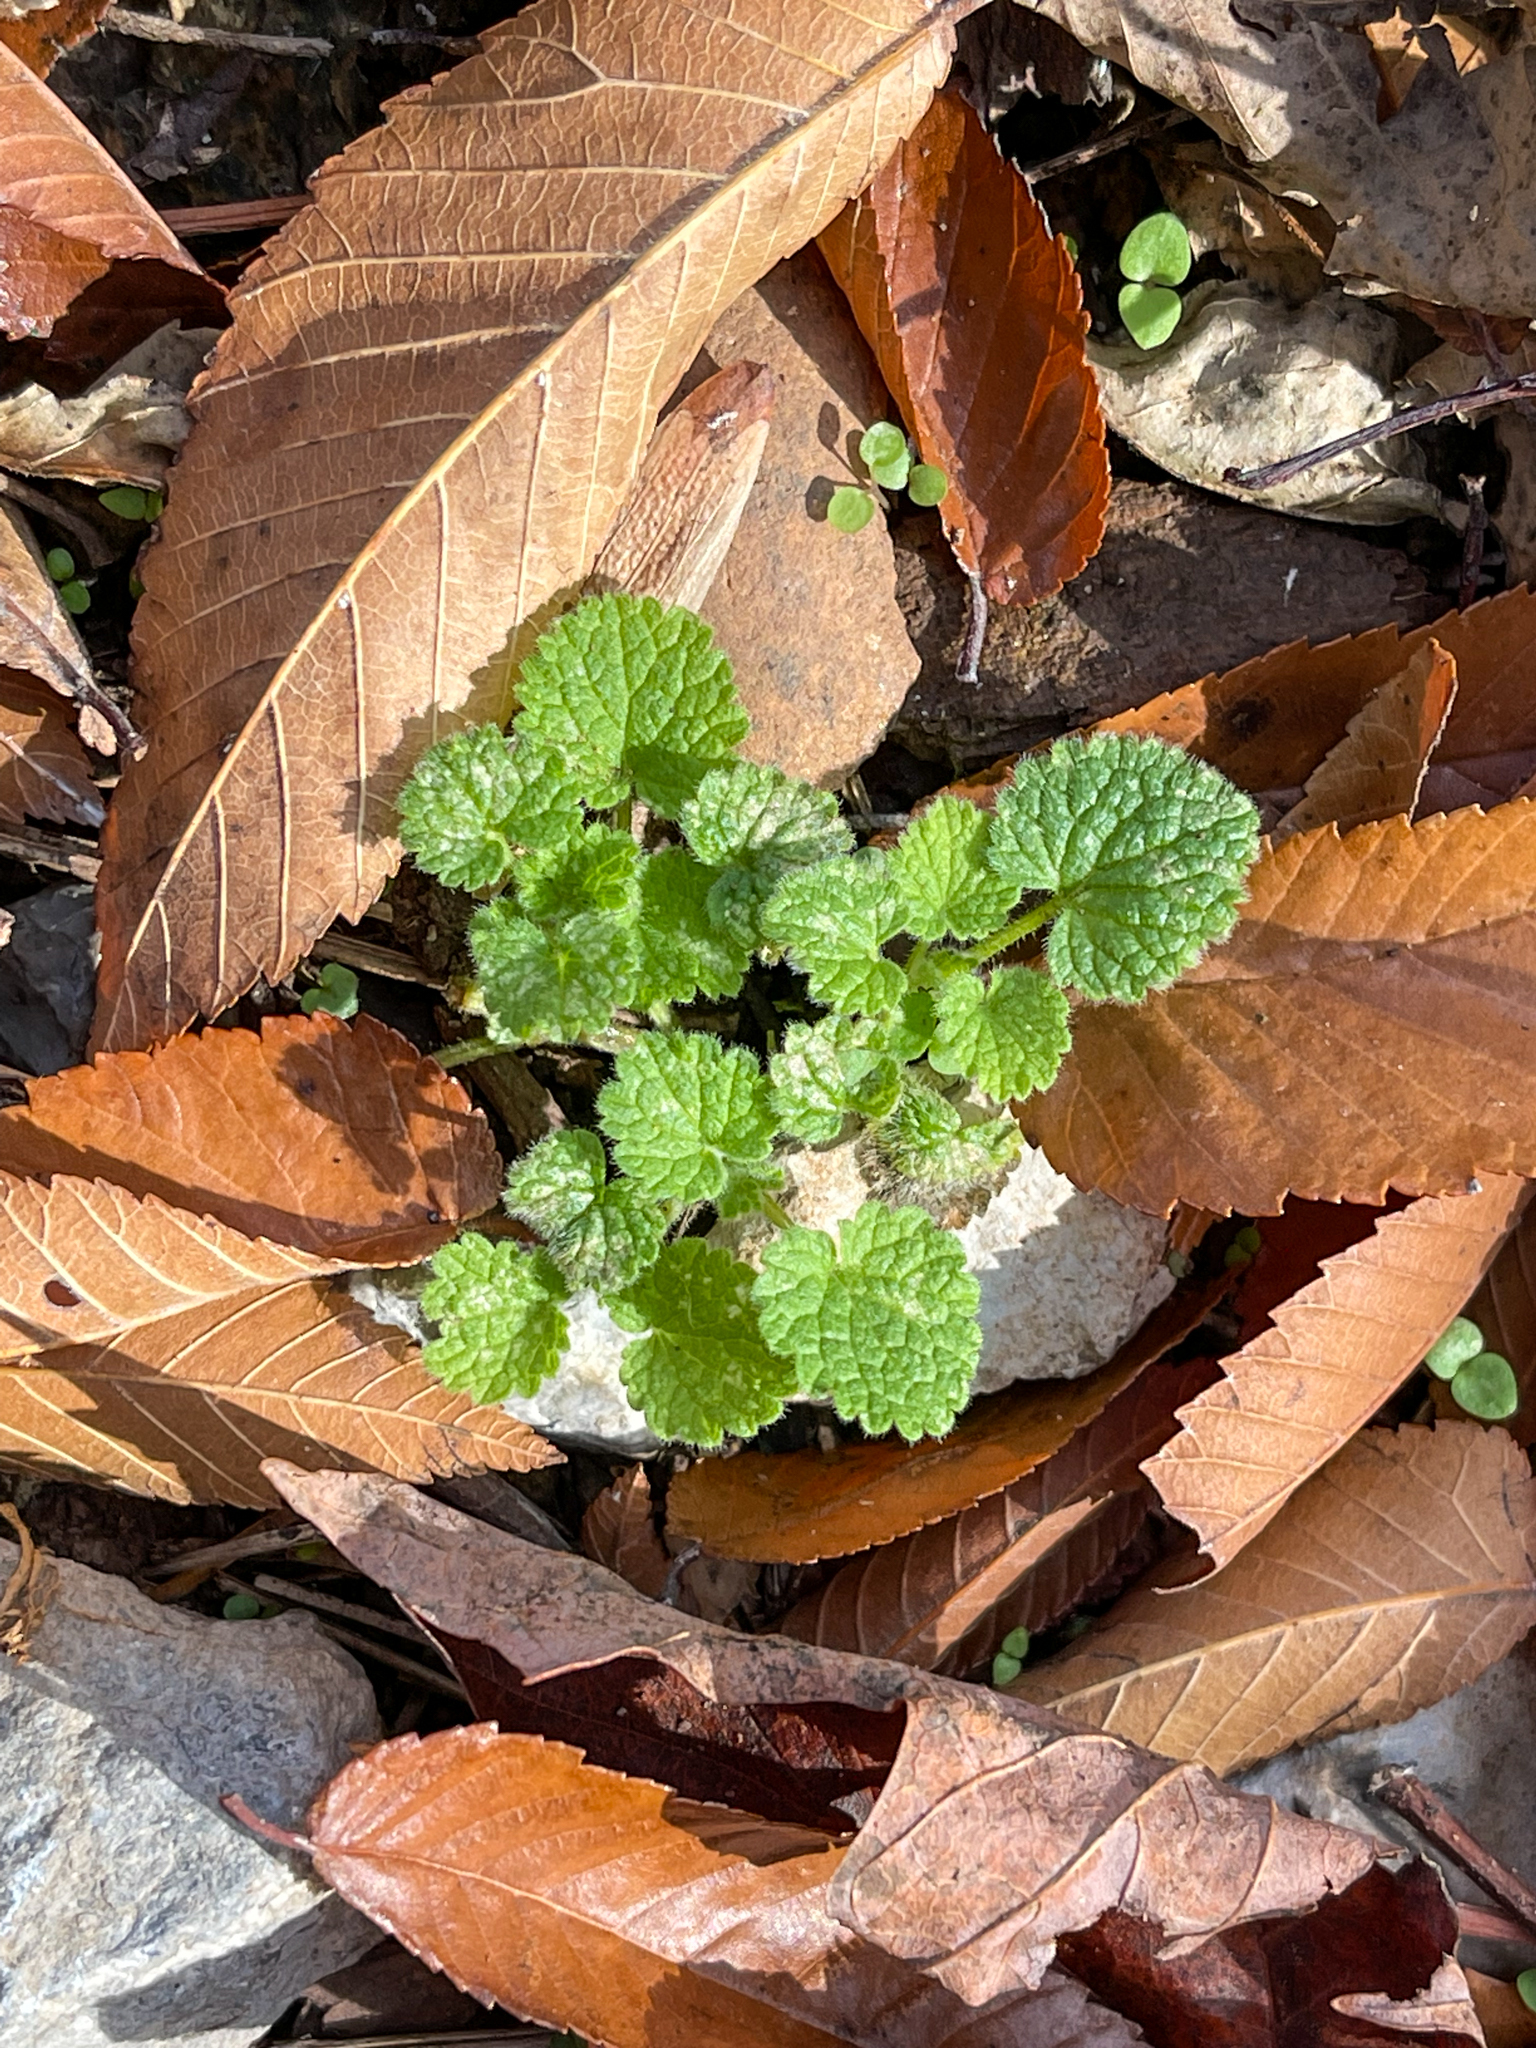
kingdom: Plantae
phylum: Tracheophyta
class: Magnoliopsida
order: Lamiales
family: Lamiaceae
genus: Lamium
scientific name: Lamium purpureum
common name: Red dead-nettle
